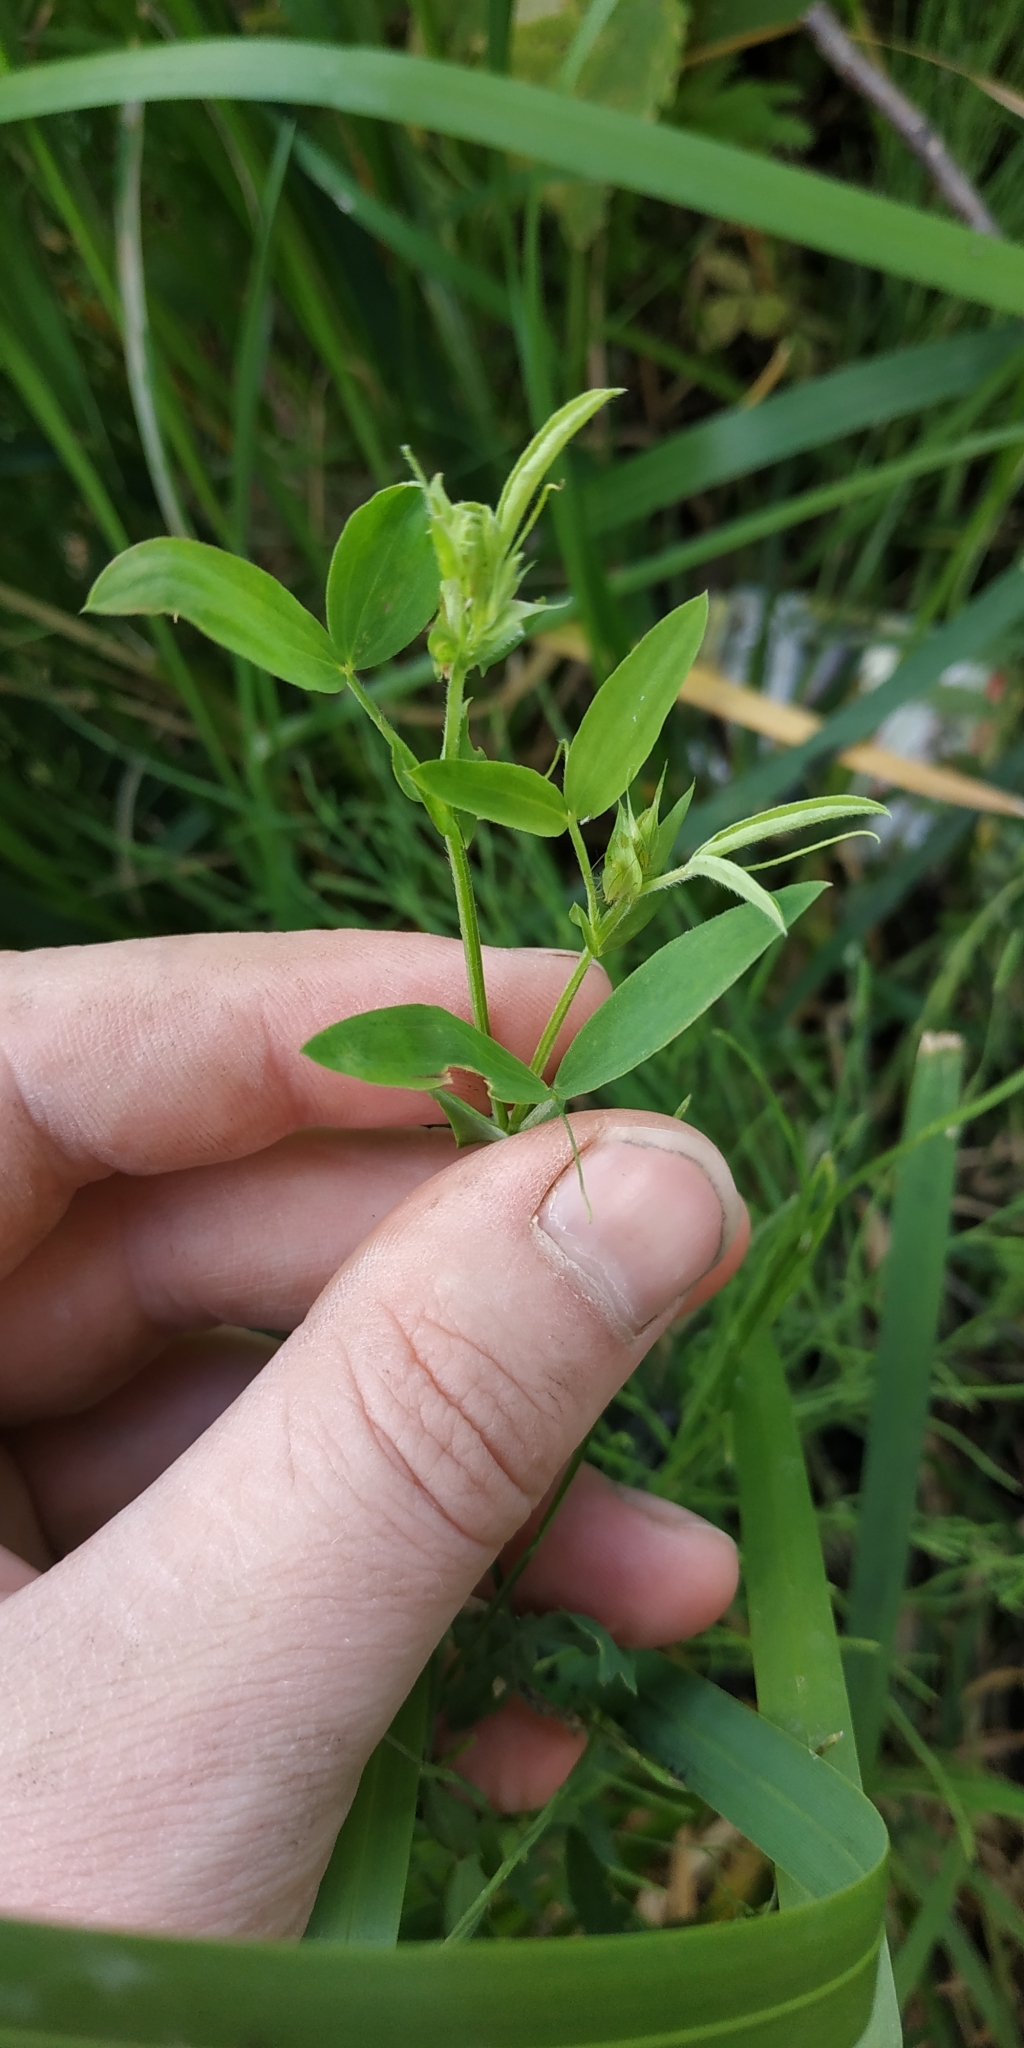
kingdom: Plantae
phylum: Tracheophyta
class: Magnoliopsida
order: Fabales
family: Fabaceae
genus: Lathyrus
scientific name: Lathyrus pratensis
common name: Meadow vetchling
